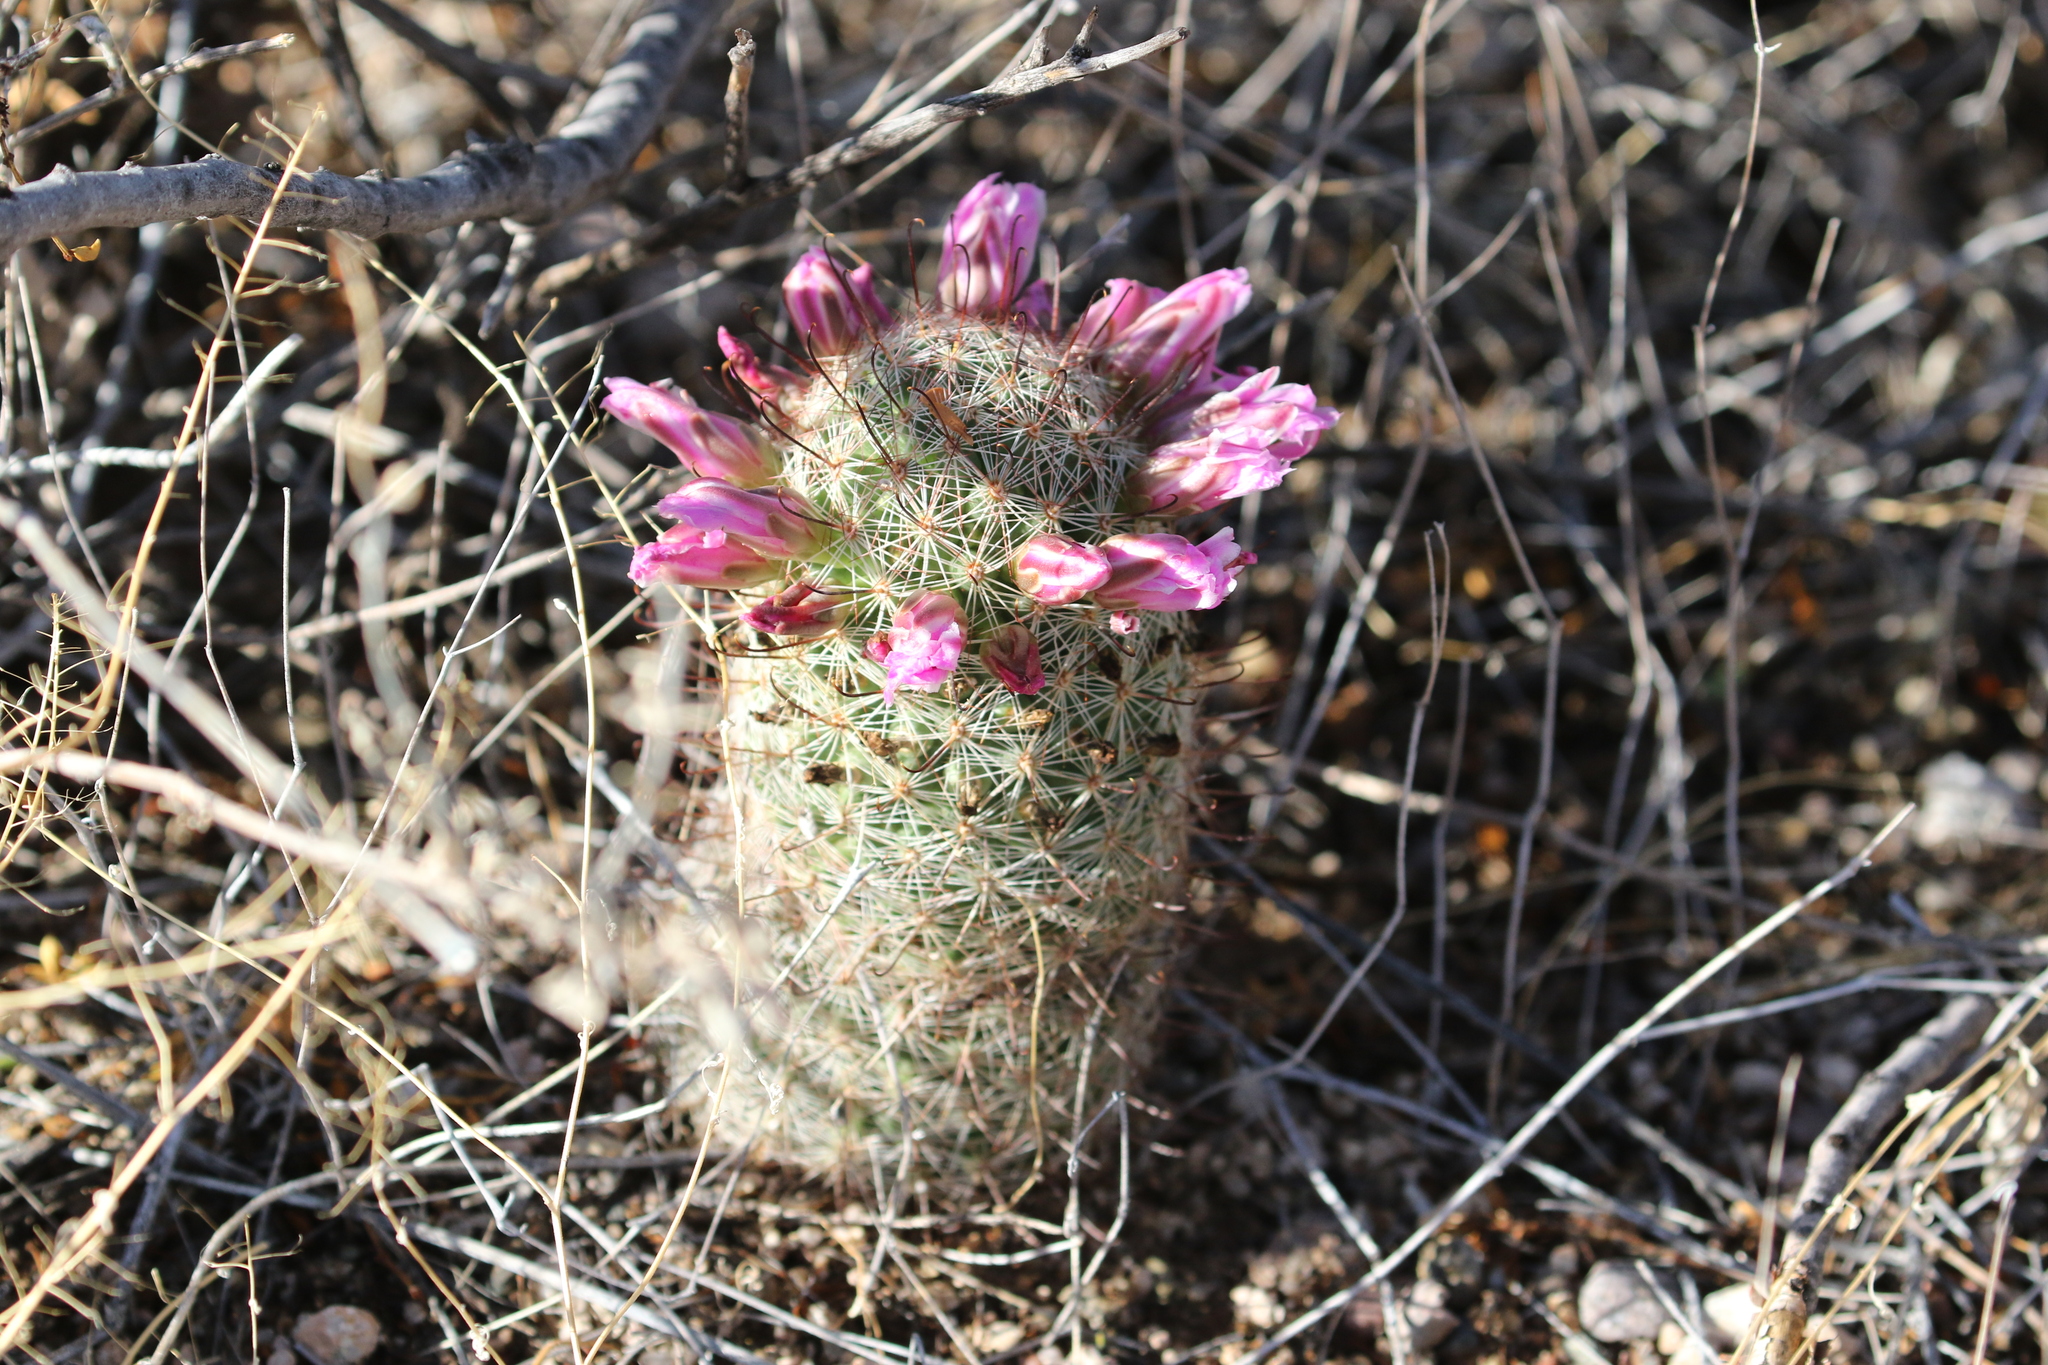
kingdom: Plantae
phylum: Tracheophyta
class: Magnoliopsida
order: Caryophyllales
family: Cactaceae
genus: Cochemiea
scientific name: Cochemiea grahamii
